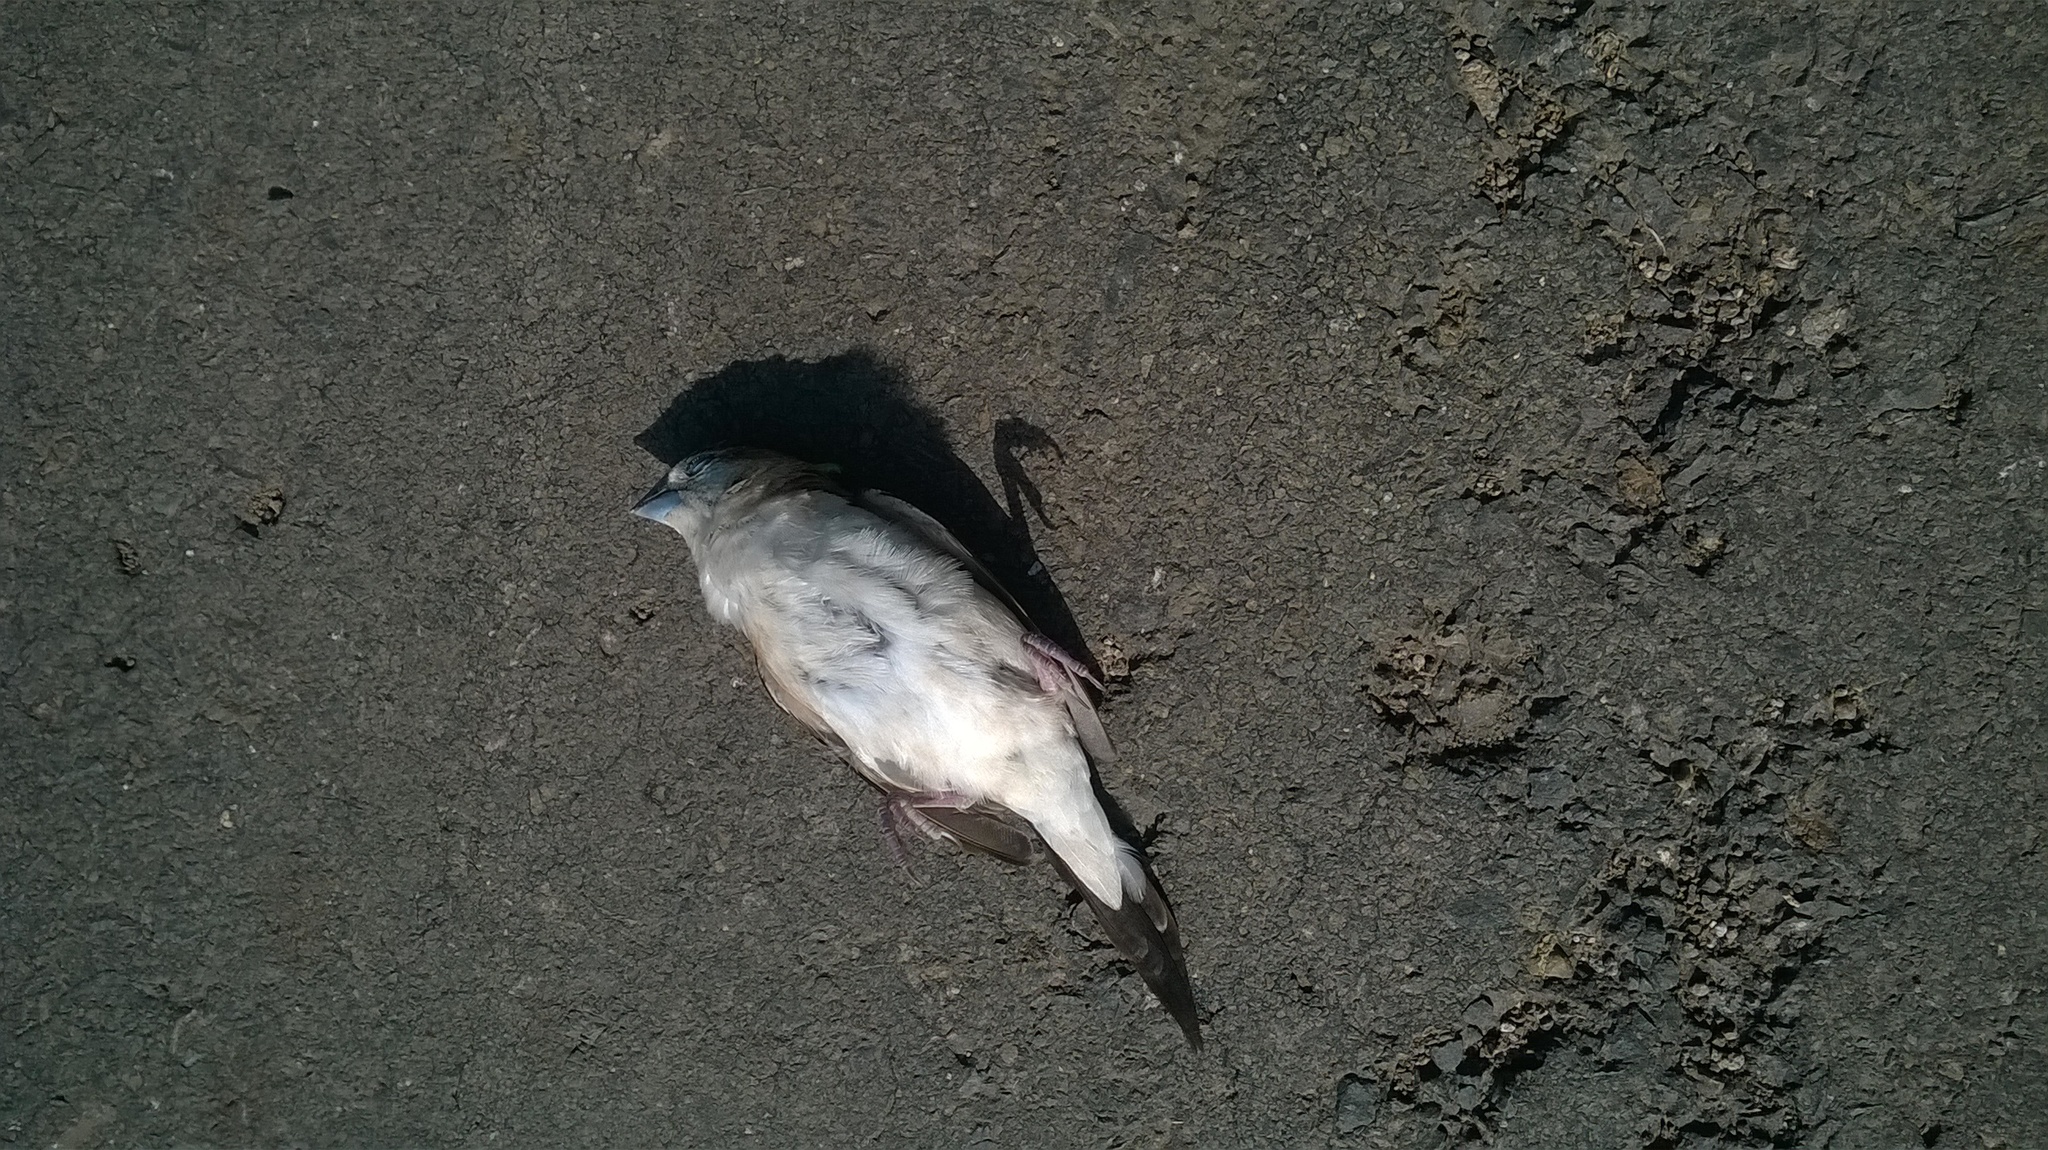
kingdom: Animalia
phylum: Chordata
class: Aves
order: Passeriformes
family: Estrildidae
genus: Euodice
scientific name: Euodice malabarica
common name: Indian silverbill
